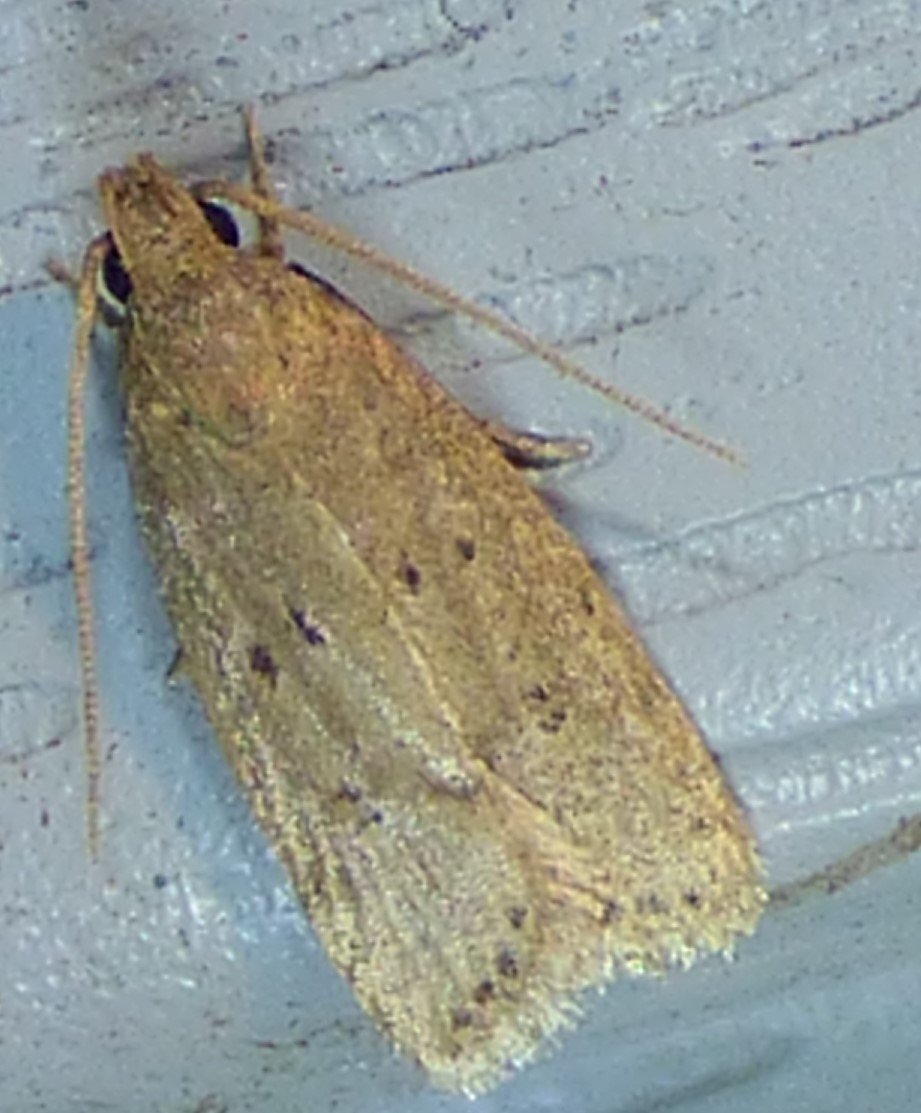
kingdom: Animalia
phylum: Arthropoda
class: Insecta
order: Lepidoptera
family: Autostichidae
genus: Autosticha
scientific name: Autosticha kyotensis
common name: Kyoto moth
